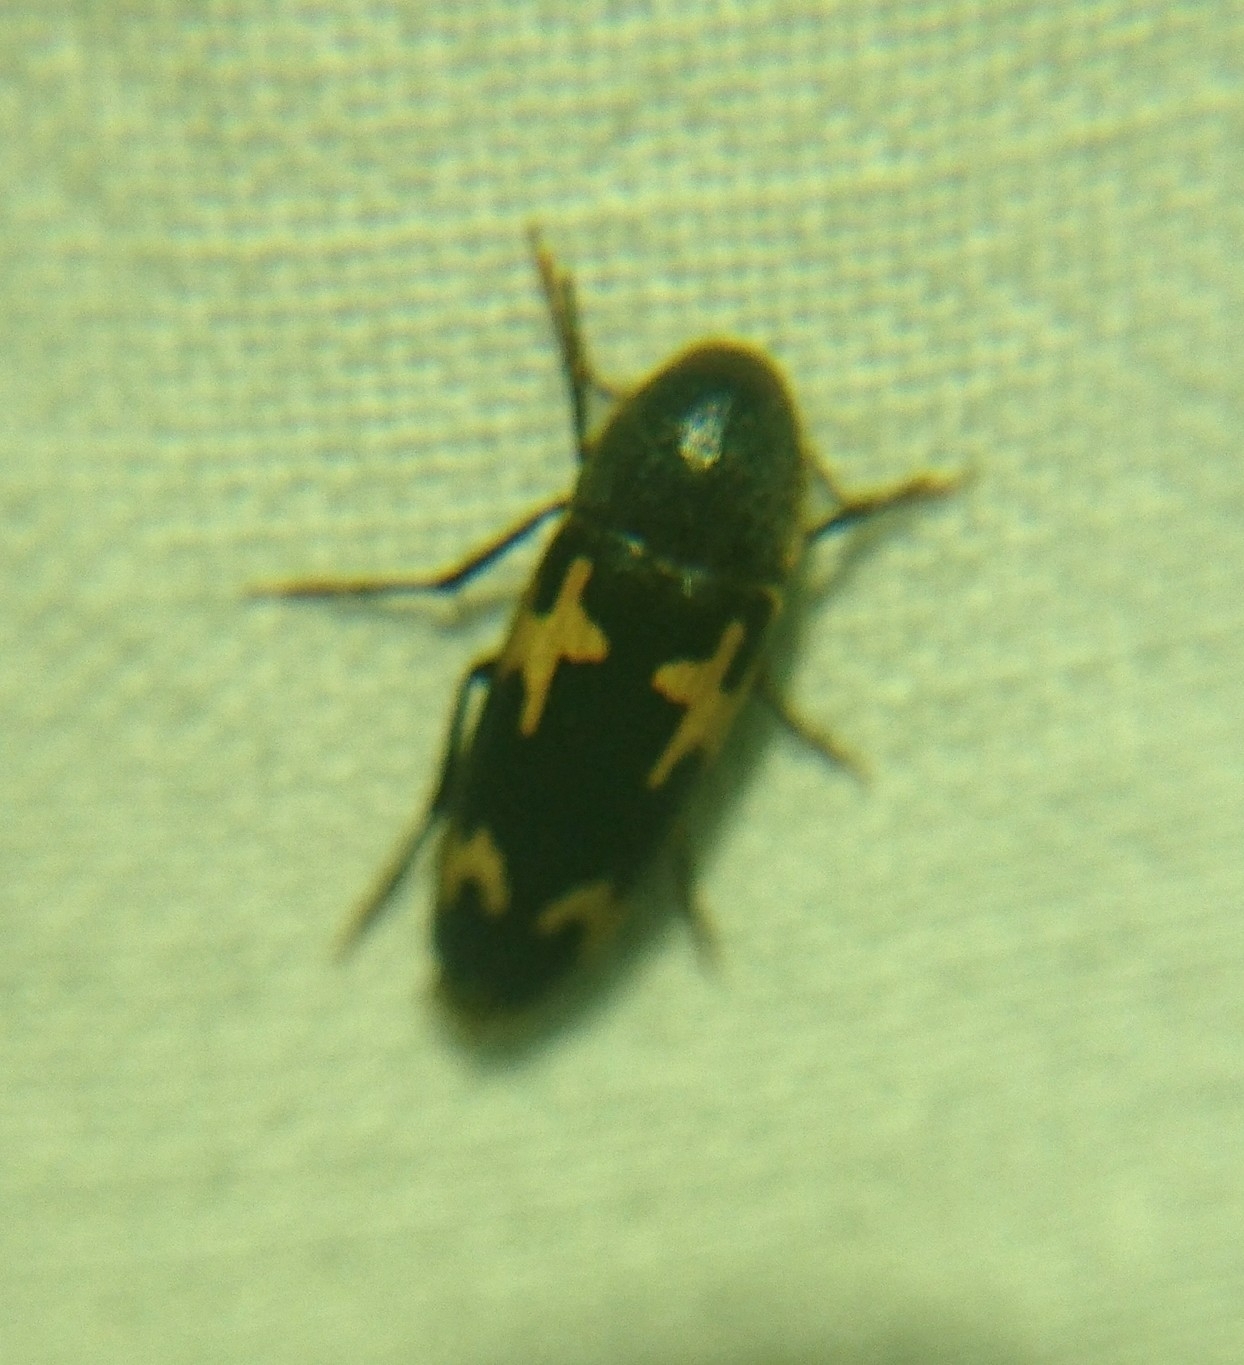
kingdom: Animalia
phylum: Arthropoda
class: Insecta
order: Coleoptera
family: Melandryidae
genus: Dircaea
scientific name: Dircaea liturata
